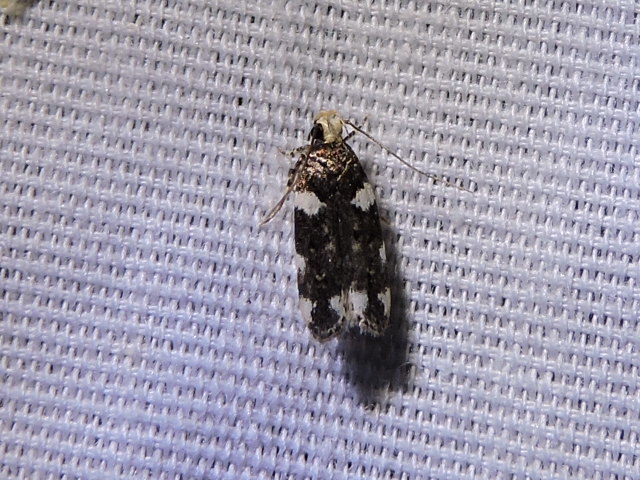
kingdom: Animalia
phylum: Arthropoda
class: Insecta
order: Lepidoptera
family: Gelechiidae
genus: Fascista
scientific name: Fascista cercerisella
